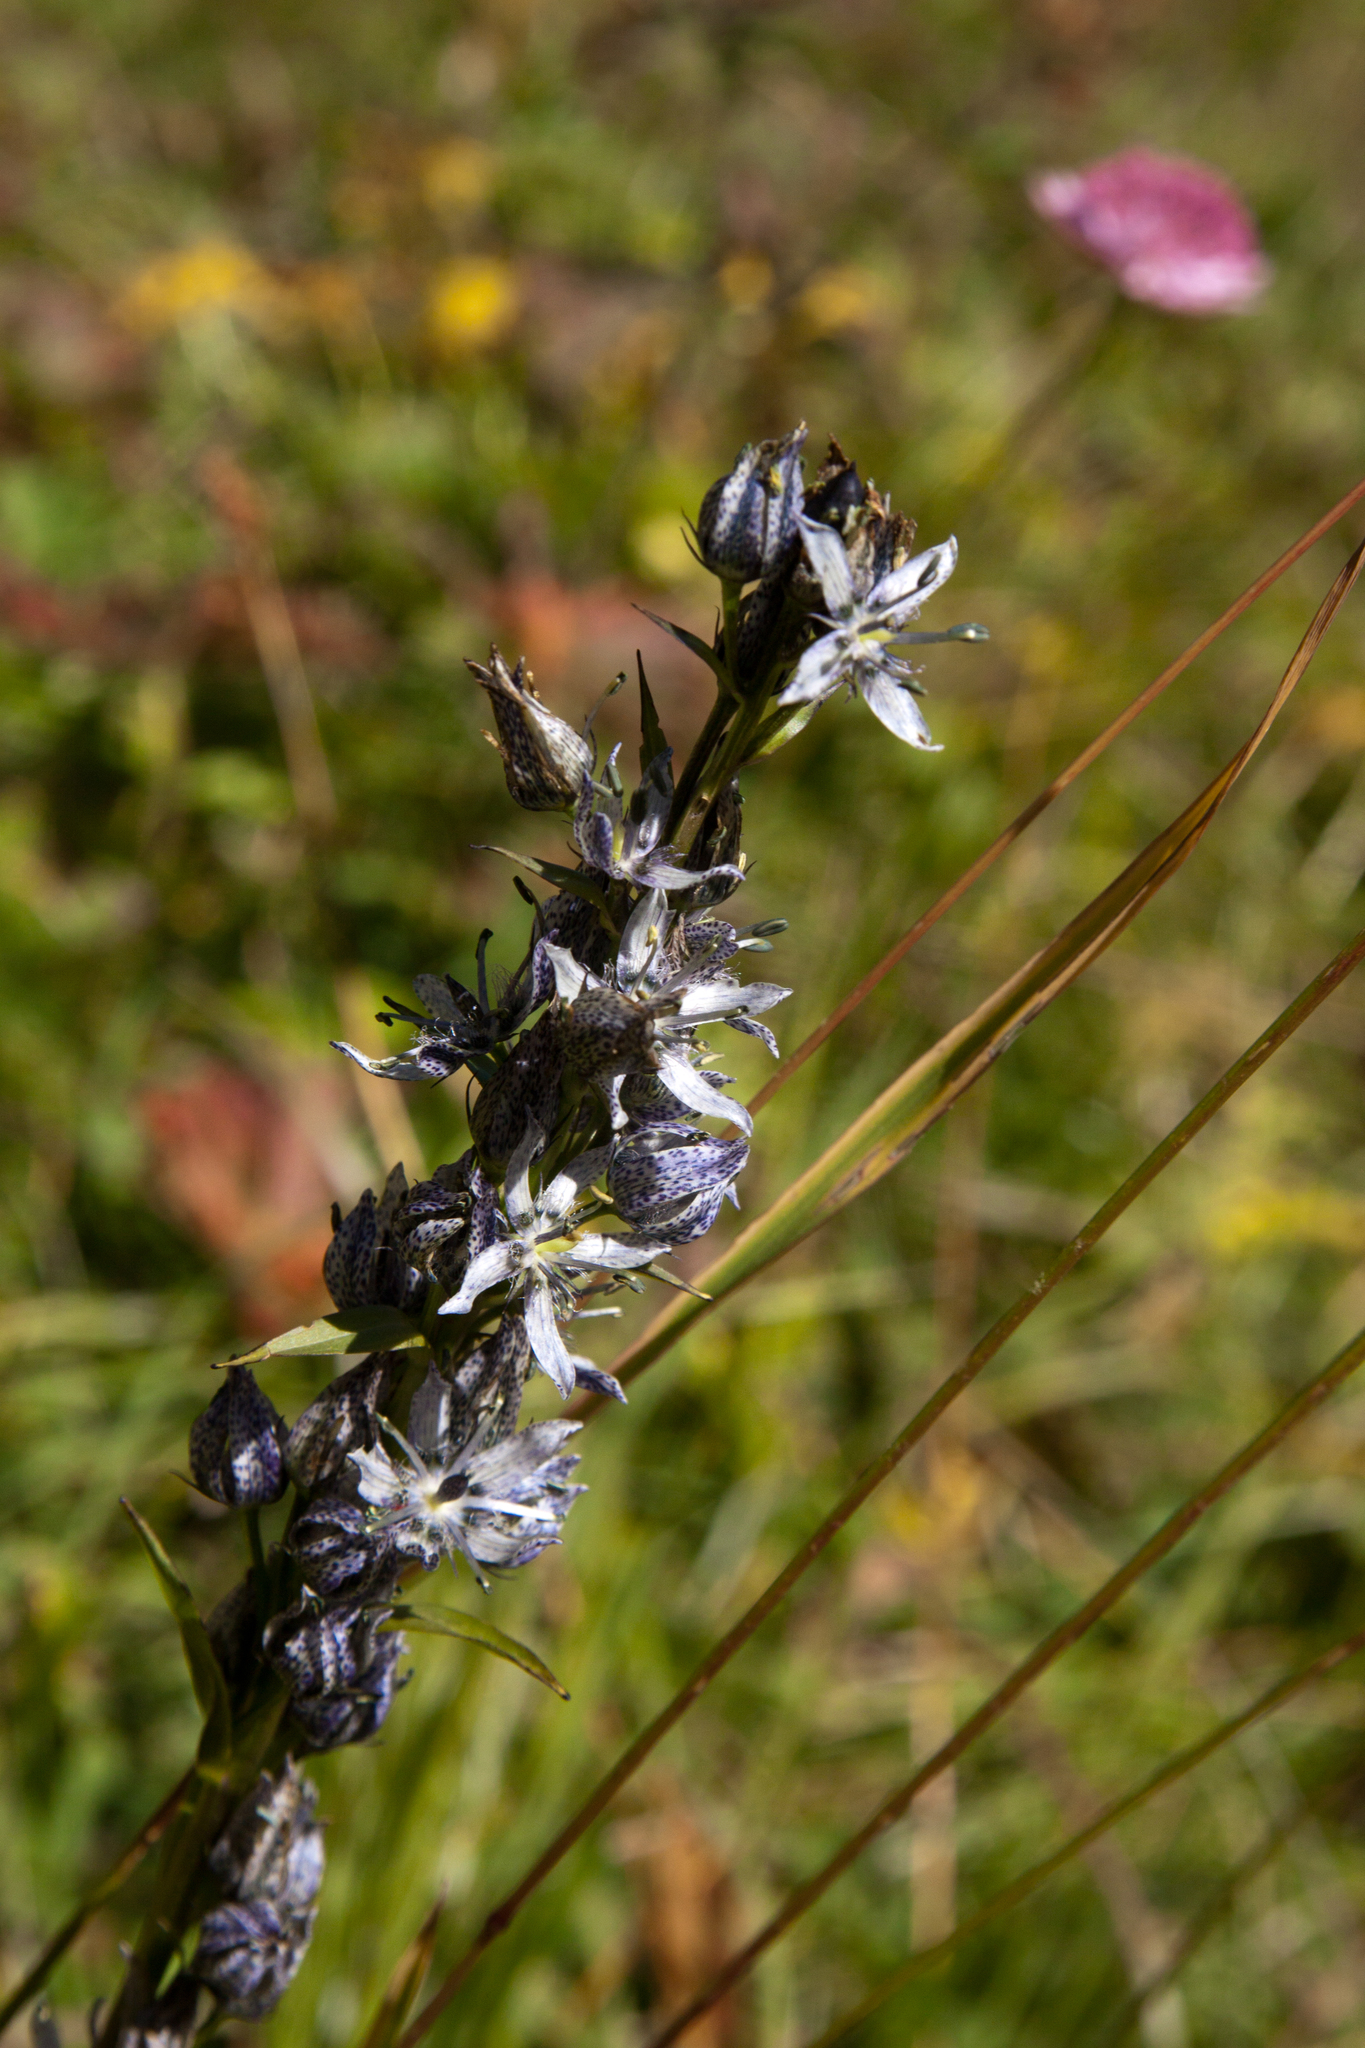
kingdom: Plantae
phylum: Tracheophyta
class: Magnoliopsida
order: Gentianales
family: Gentianaceae
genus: Swertia
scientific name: Swertia iberica
